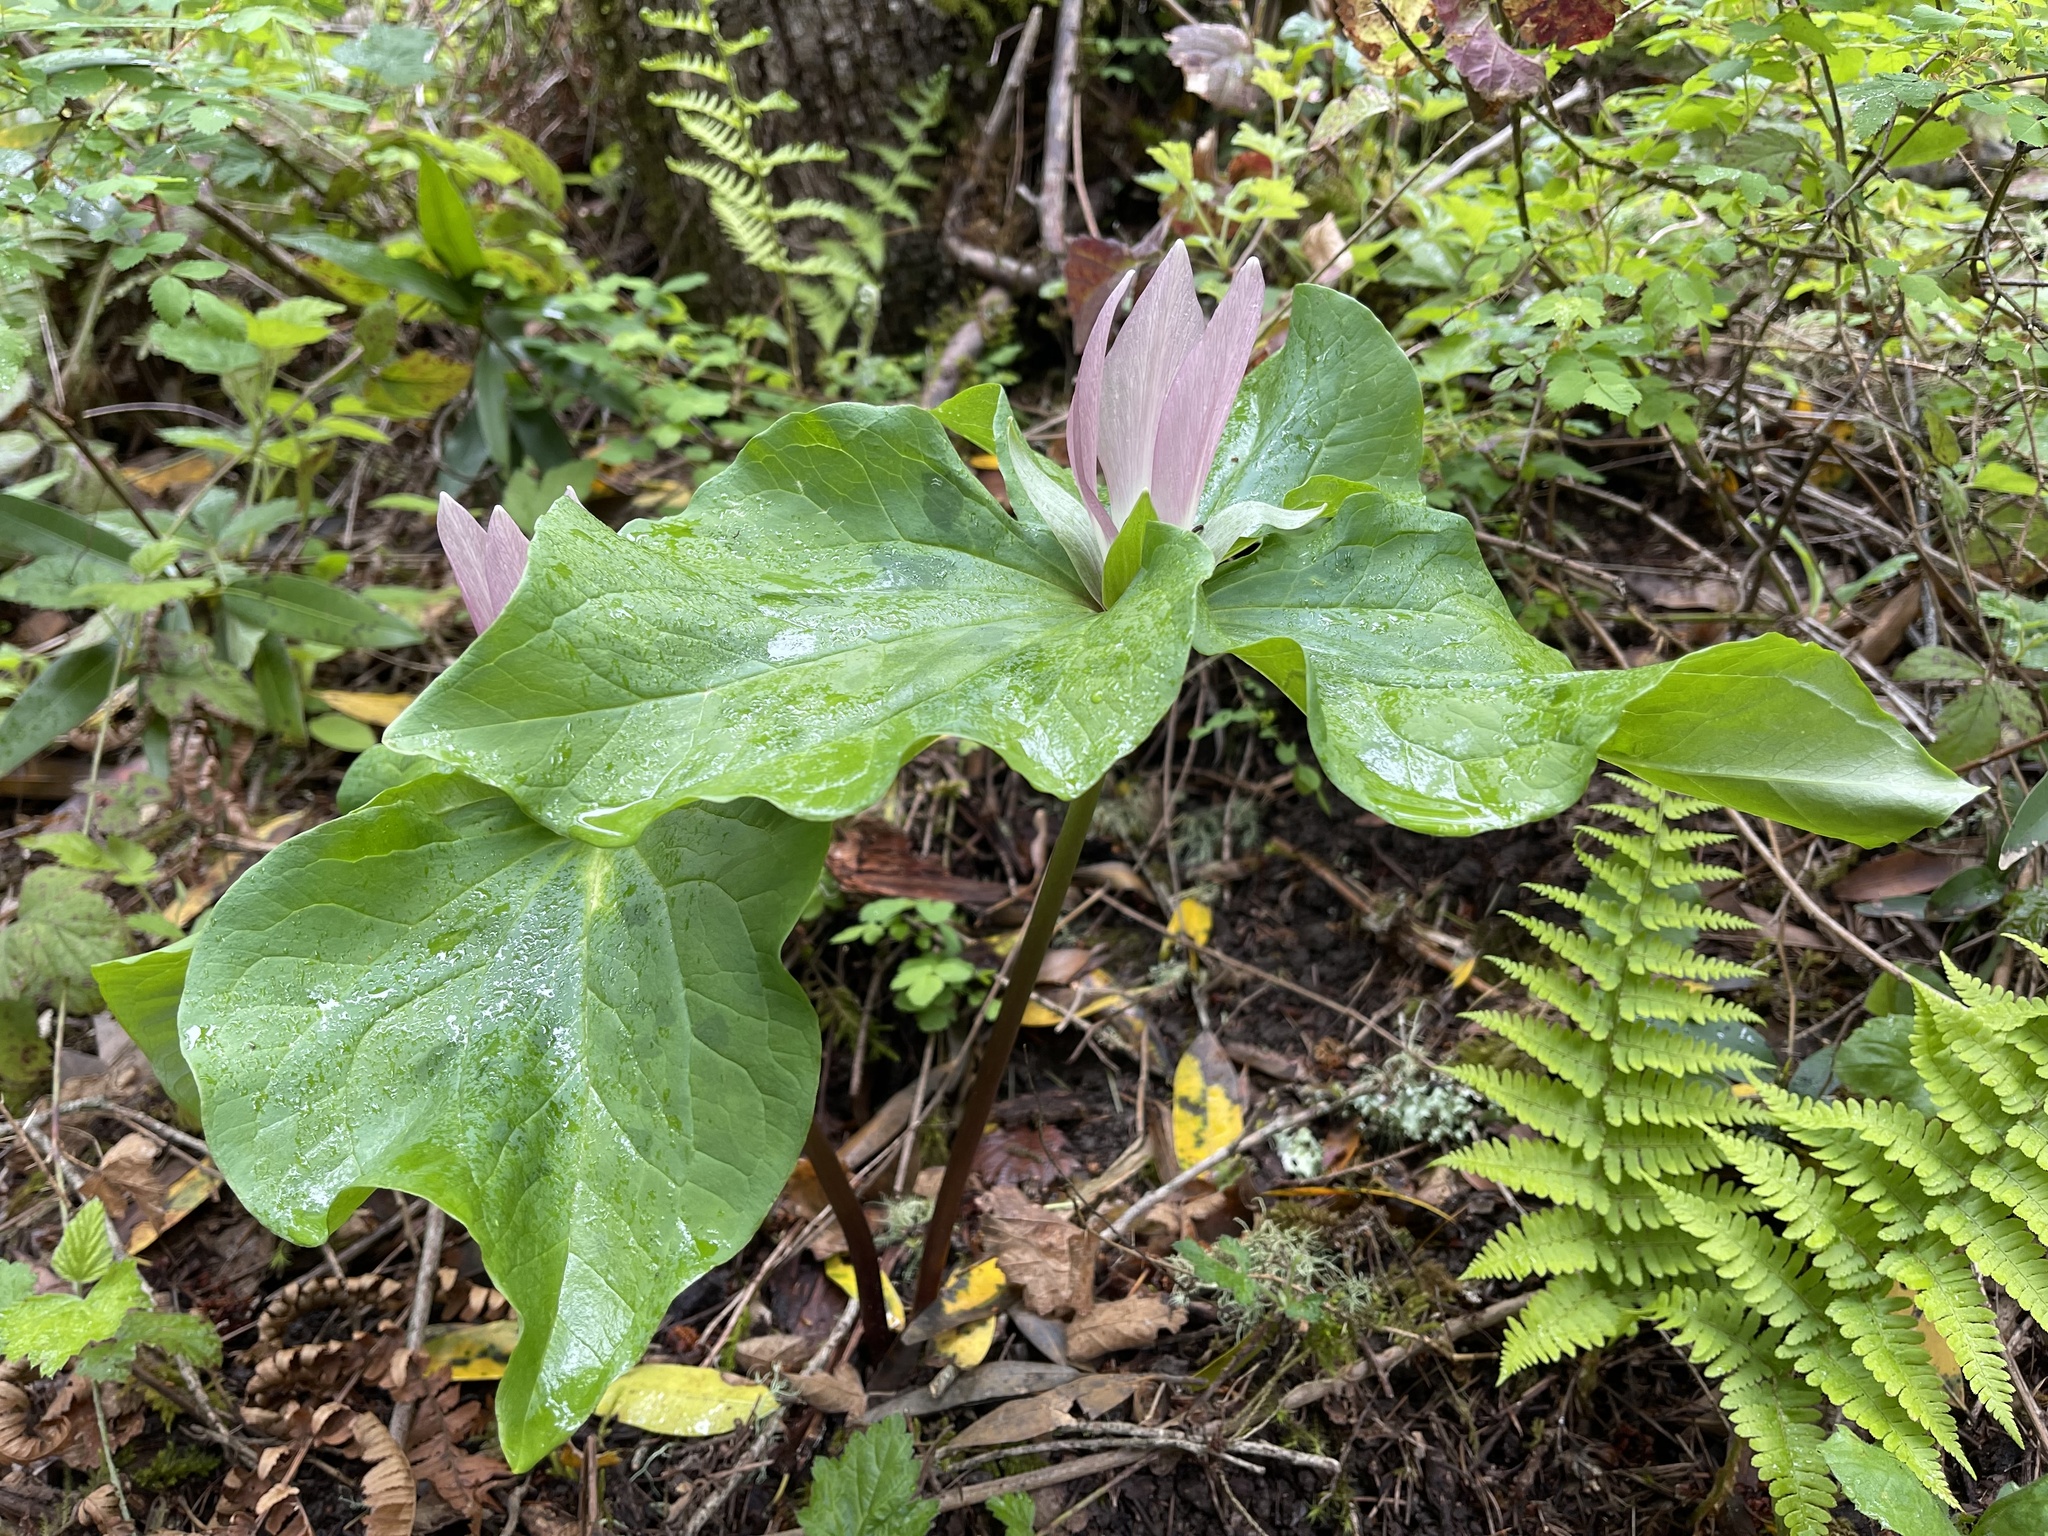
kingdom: Plantae
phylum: Tracheophyta
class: Liliopsida
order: Liliales
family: Melanthiaceae
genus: Trillium
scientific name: Trillium chloropetalum
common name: Giant trillium
